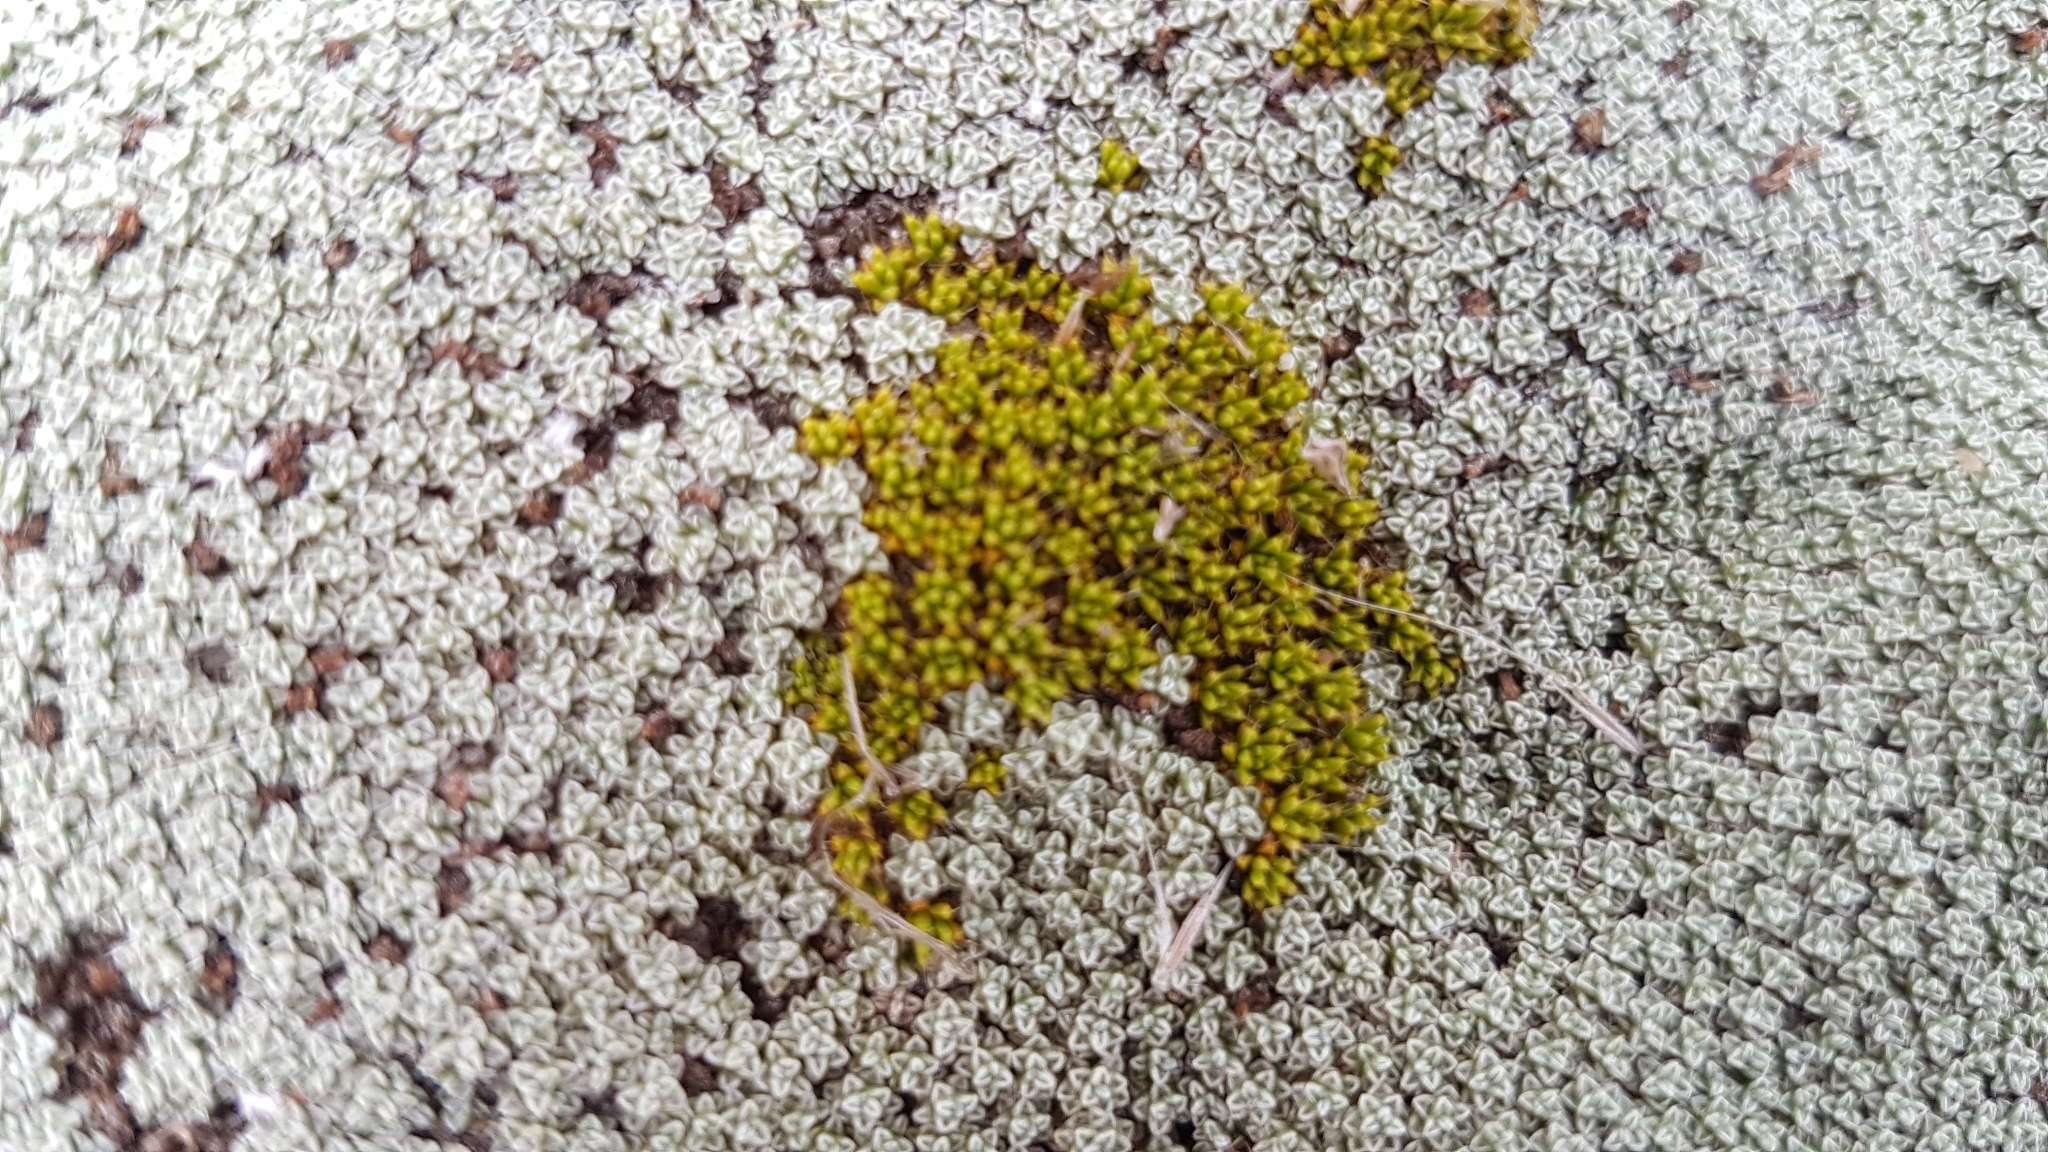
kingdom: Plantae
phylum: Tracheophyta
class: Magnoliopsida
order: Caryophyllales
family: Caryophyllaceae
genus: Colobanthus
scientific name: Colobanthus brevisepalus
